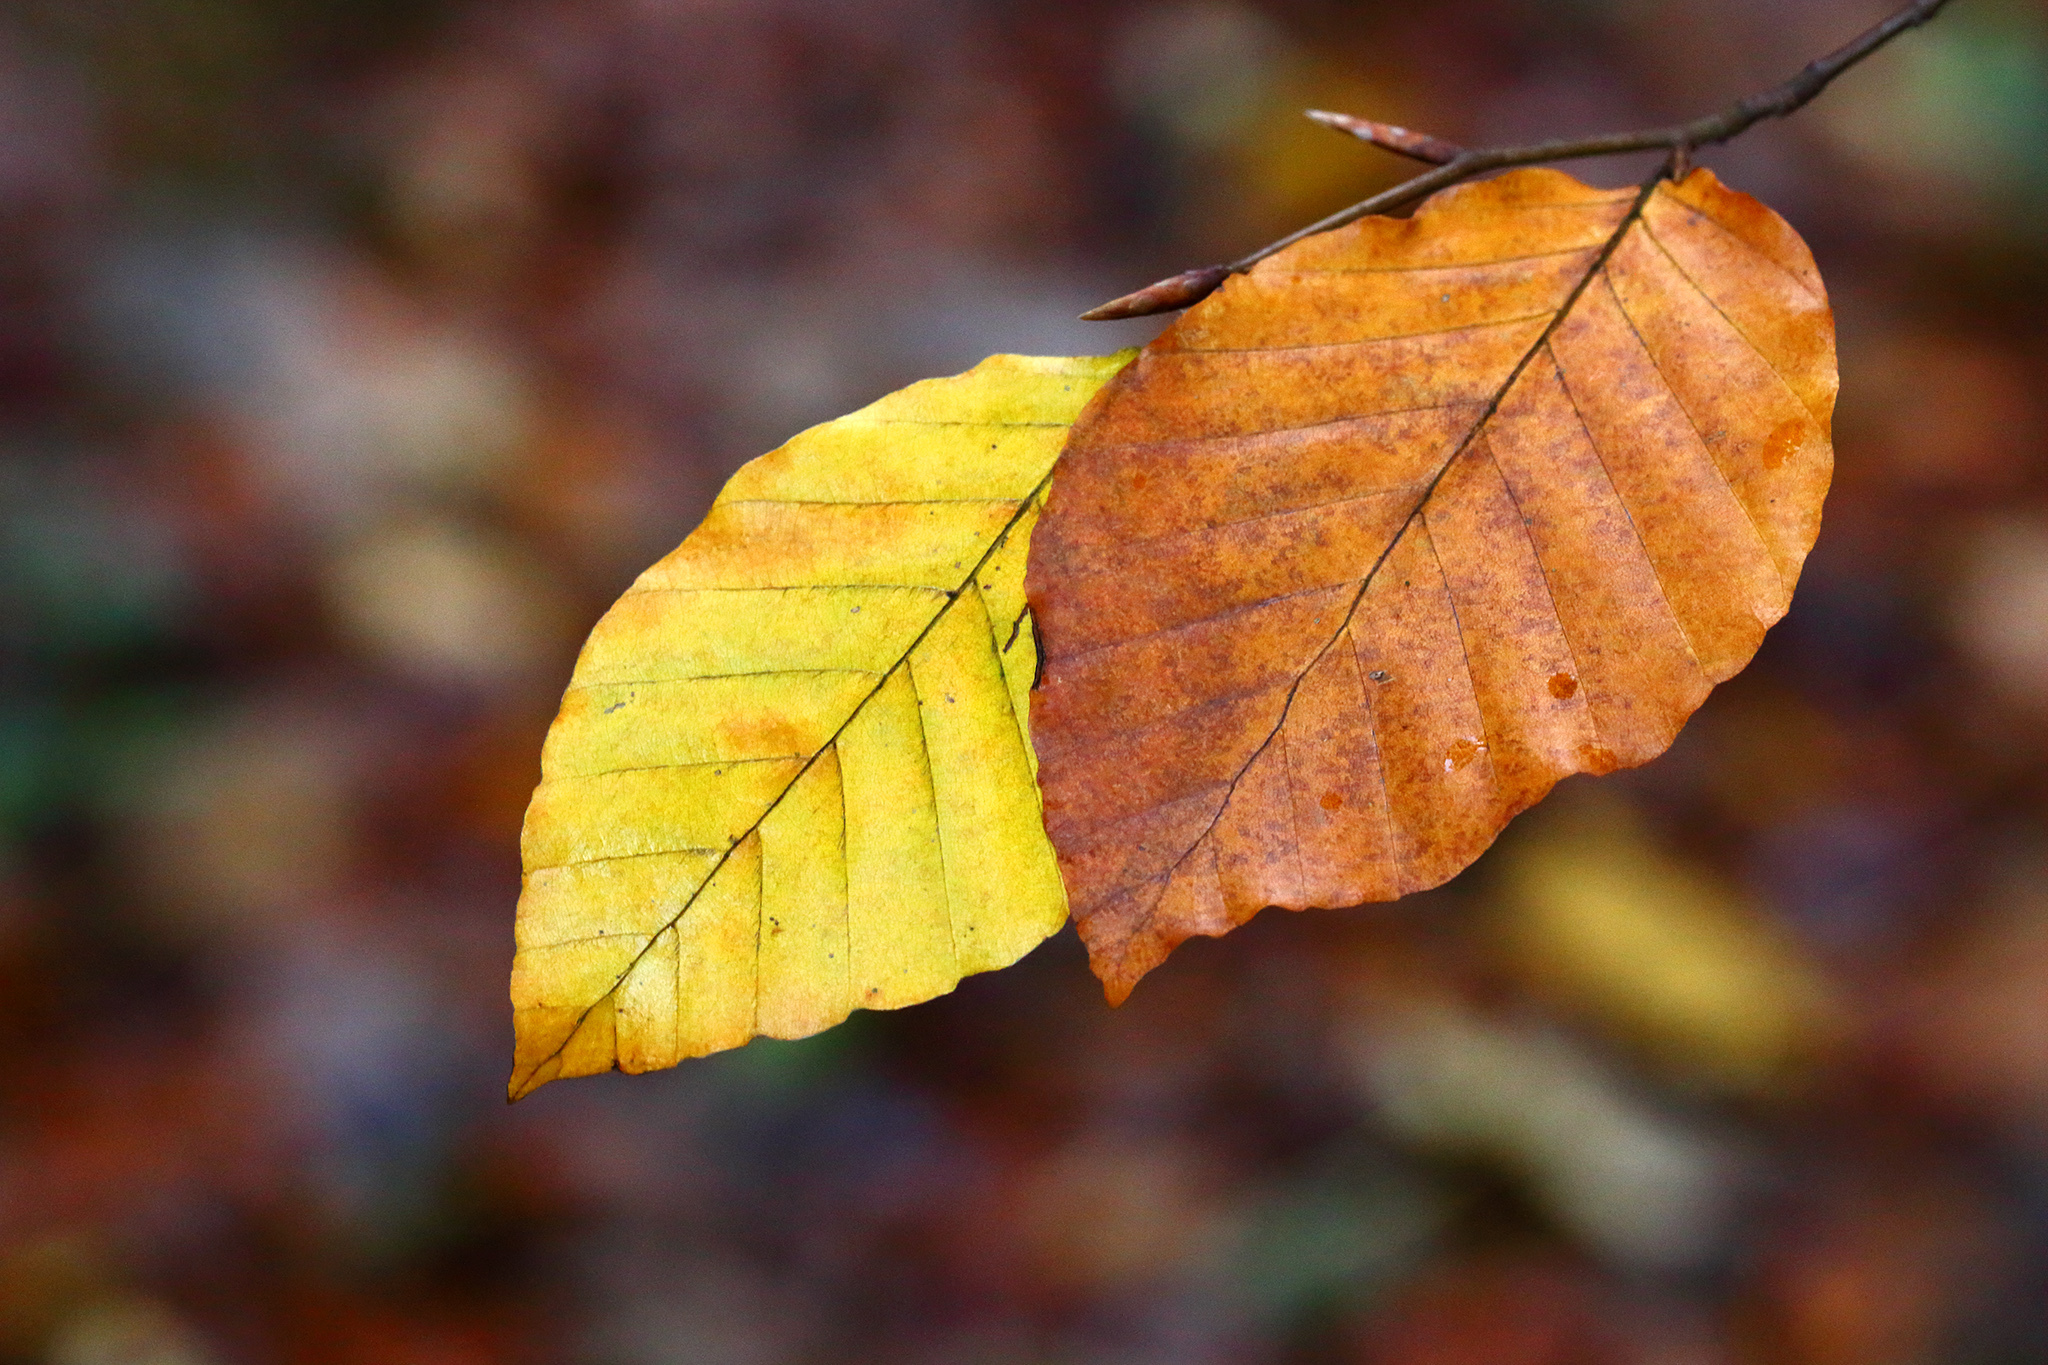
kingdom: Plantae
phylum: Tracheophyta
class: Magnoliopsida
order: Fagales
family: Fagaceae
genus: Fagus
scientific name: Fagus sylvatica
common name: Beech
